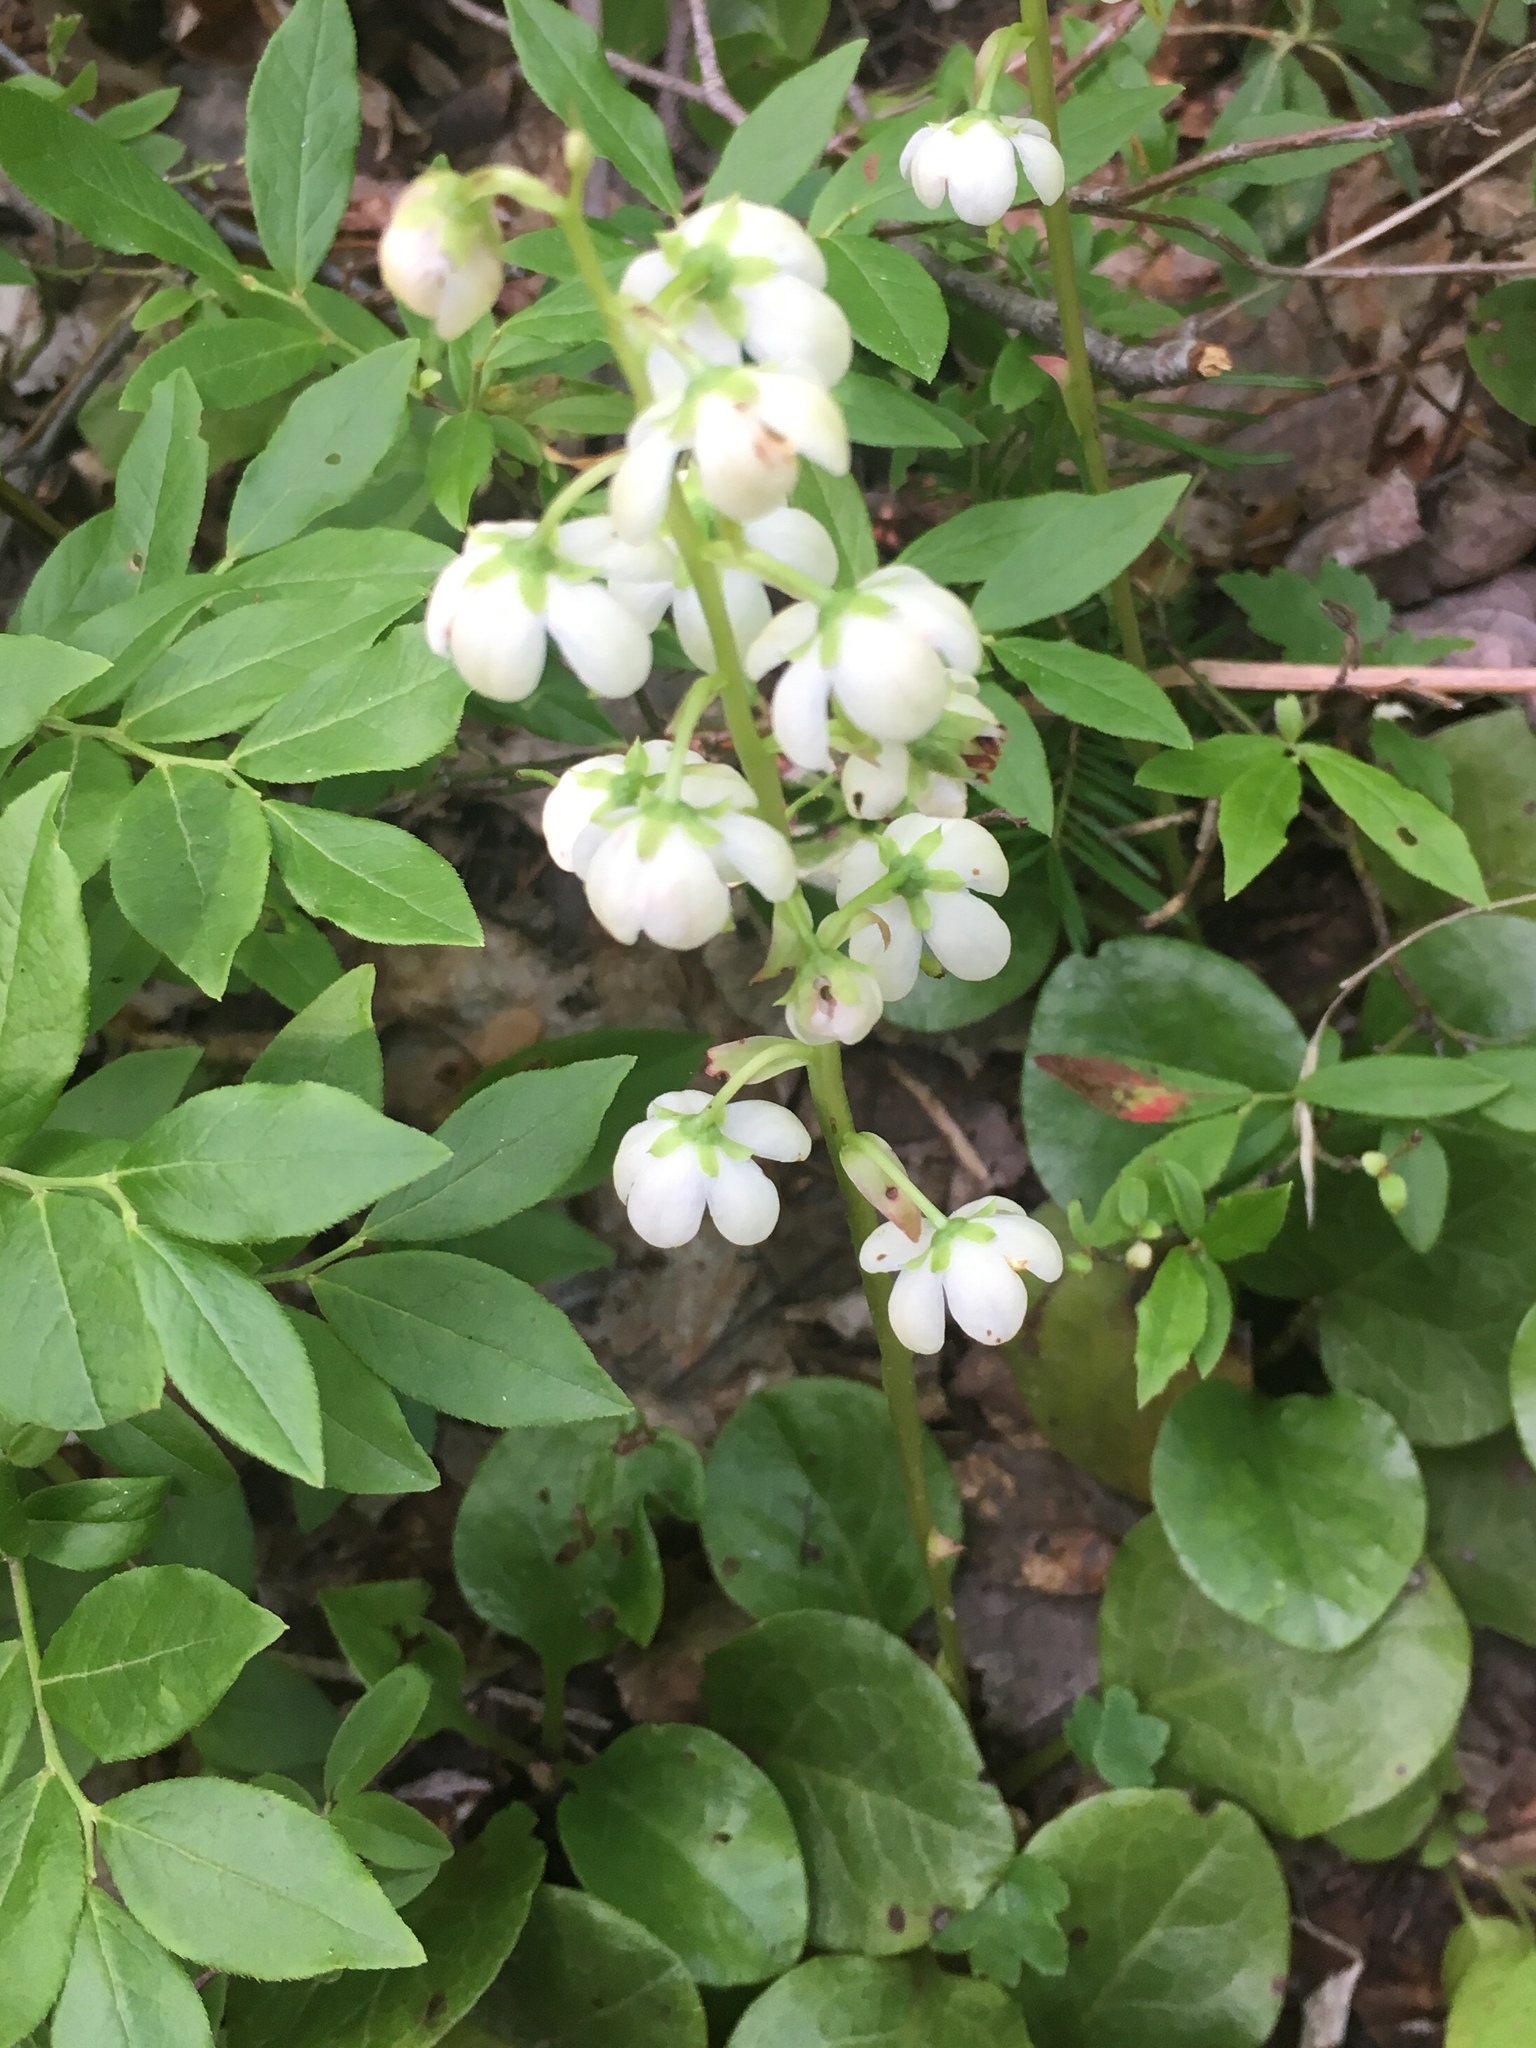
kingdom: Plantae
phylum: Tracheophyta
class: Magnoliopsida
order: Ericales
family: Ericaceae
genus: Pyrola
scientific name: Pyrola americana
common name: American wintergreen
